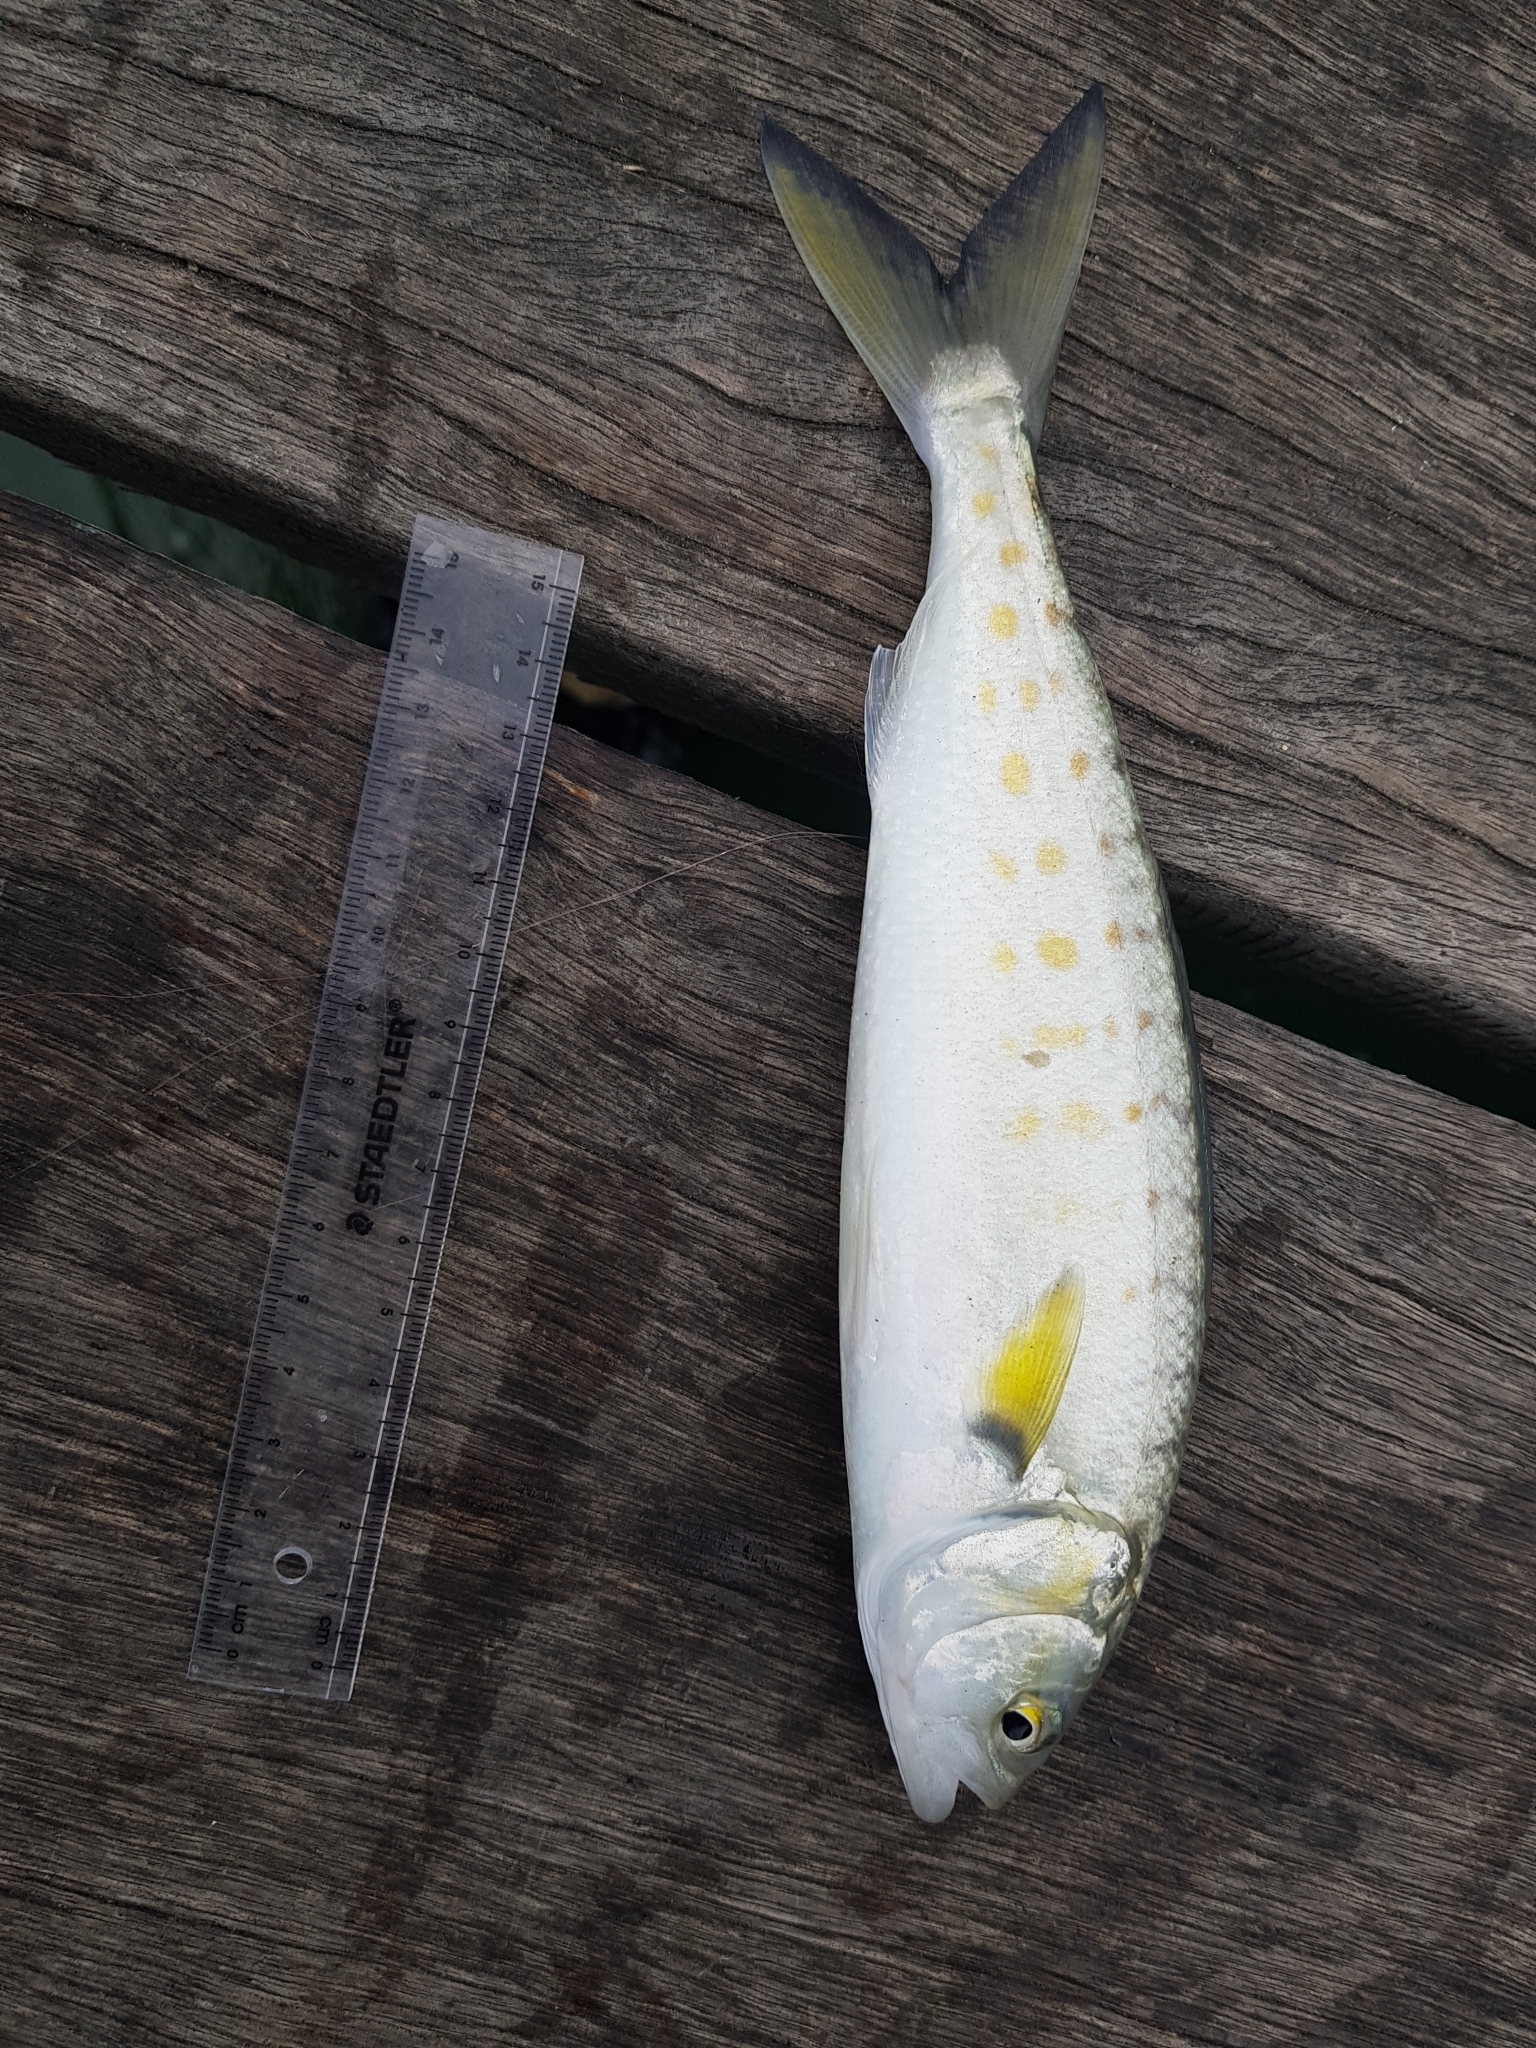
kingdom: Animalia
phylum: Chordata
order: Perciformes
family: Arripidae
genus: Arripis
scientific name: Arripis trutta
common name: Kahawai
